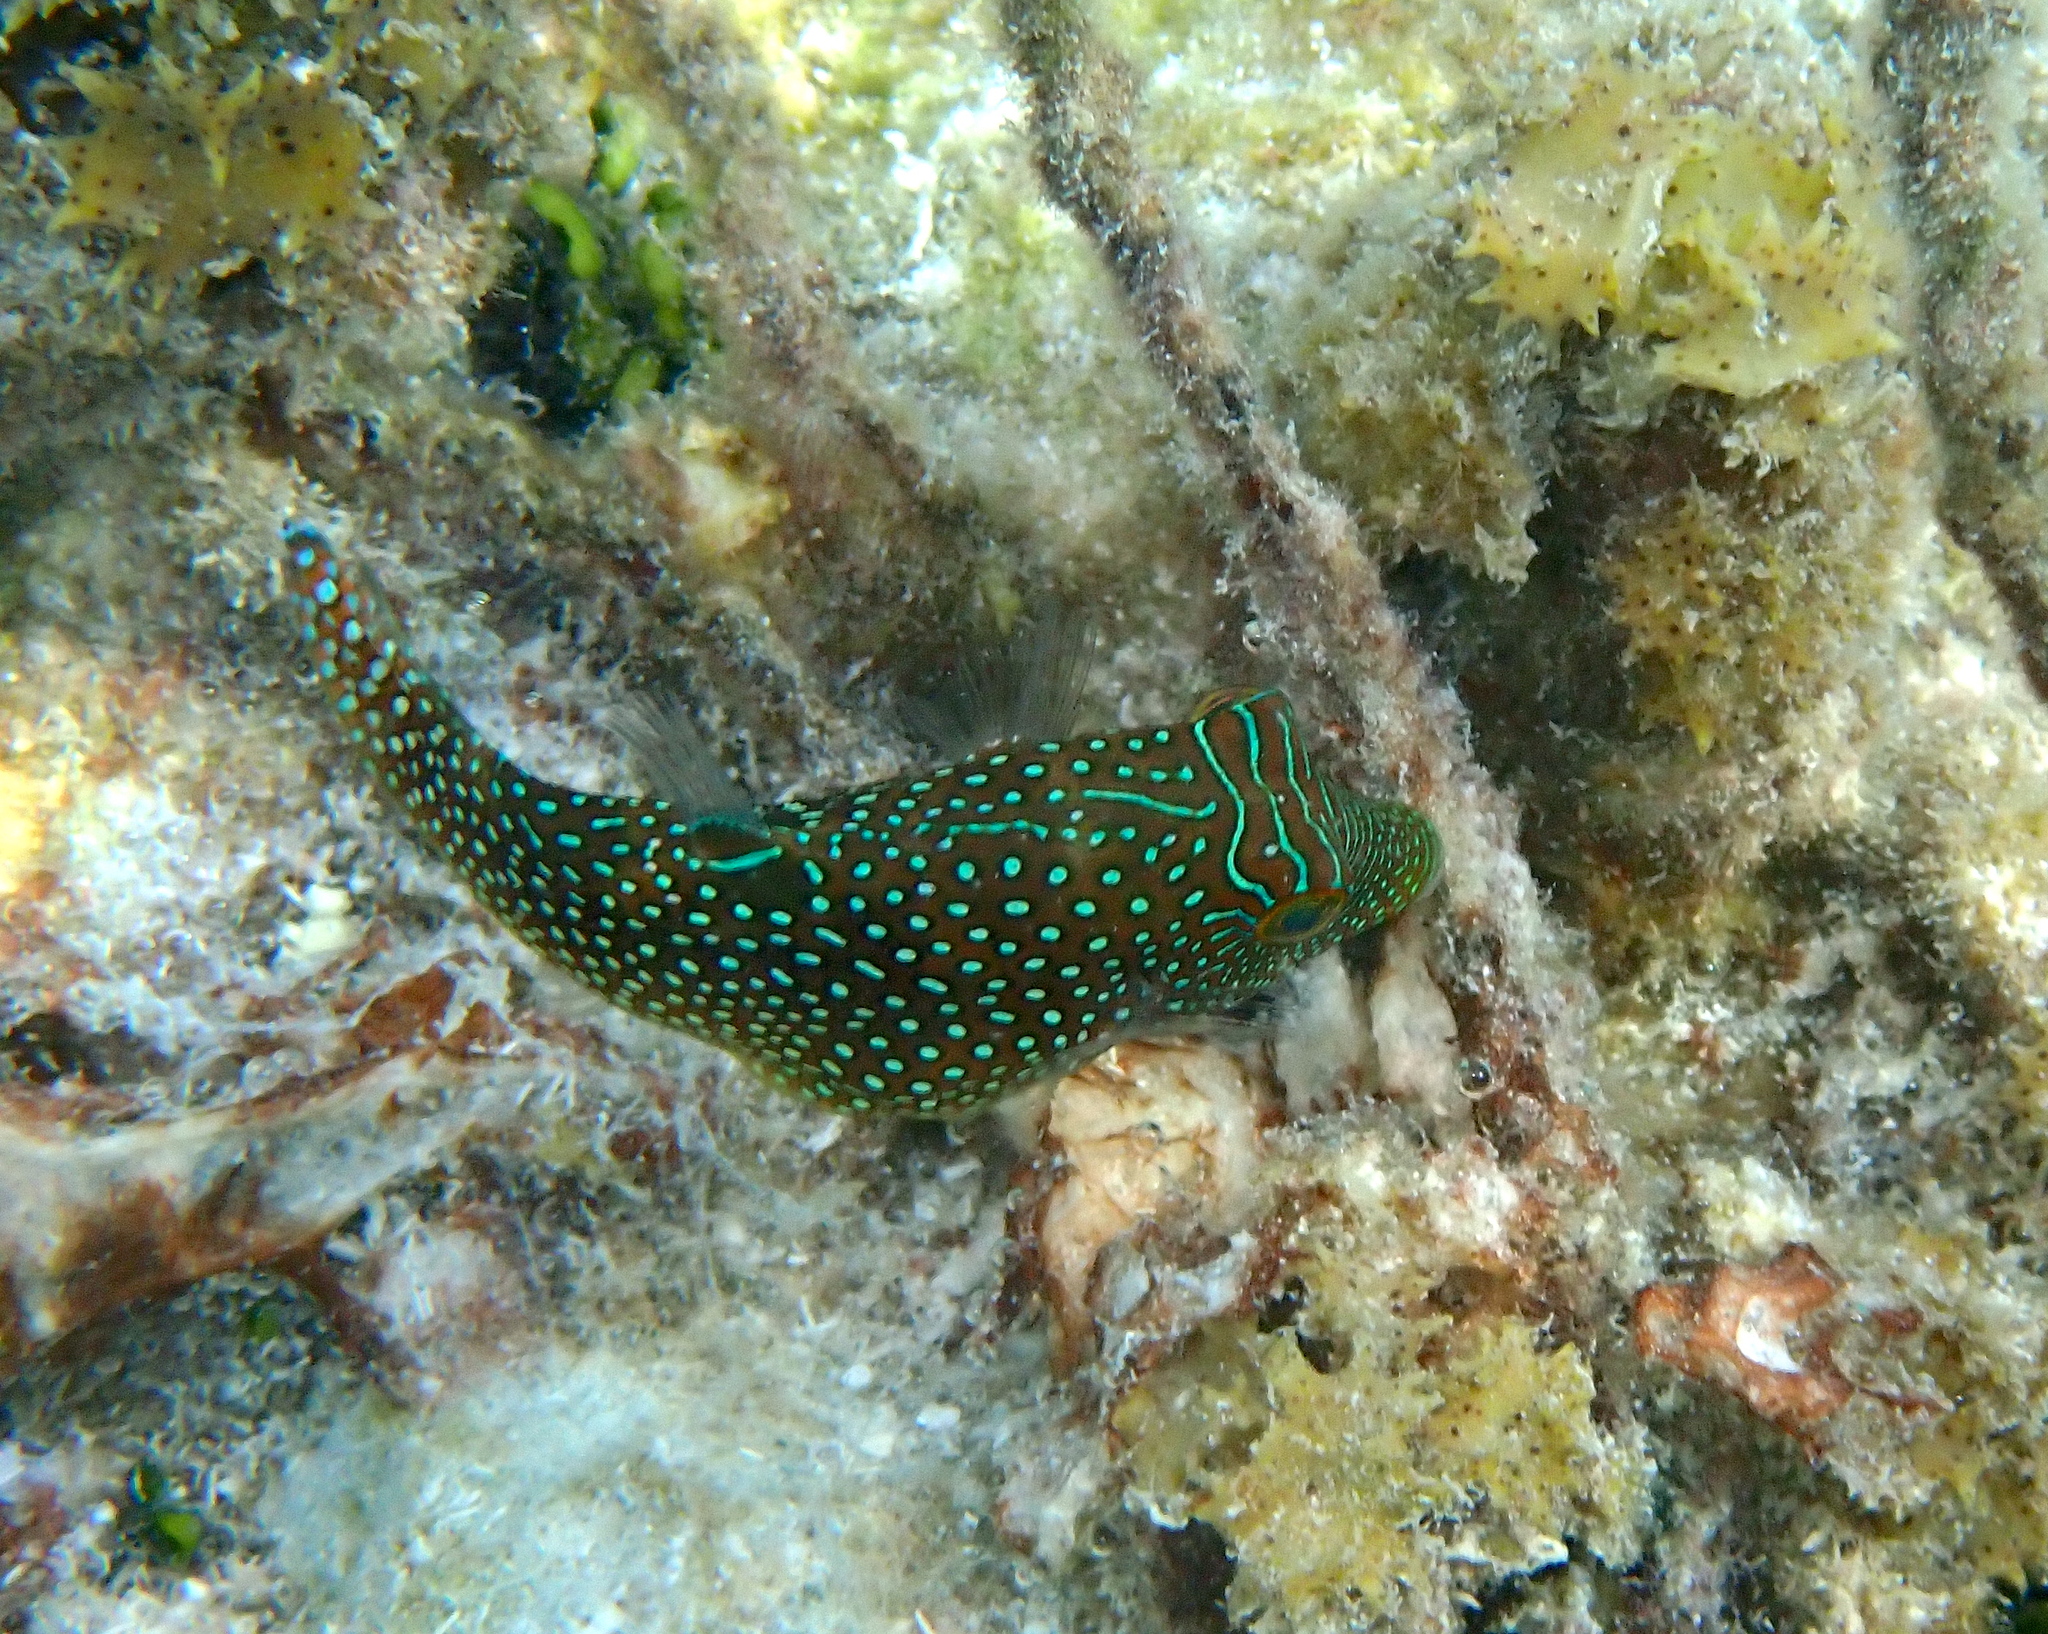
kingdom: Animalia
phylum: Chordata
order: Tetraodontiformes
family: Tetraodontidae
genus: Canthigaster
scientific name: Canthigaster solandri
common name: False-eye toby
